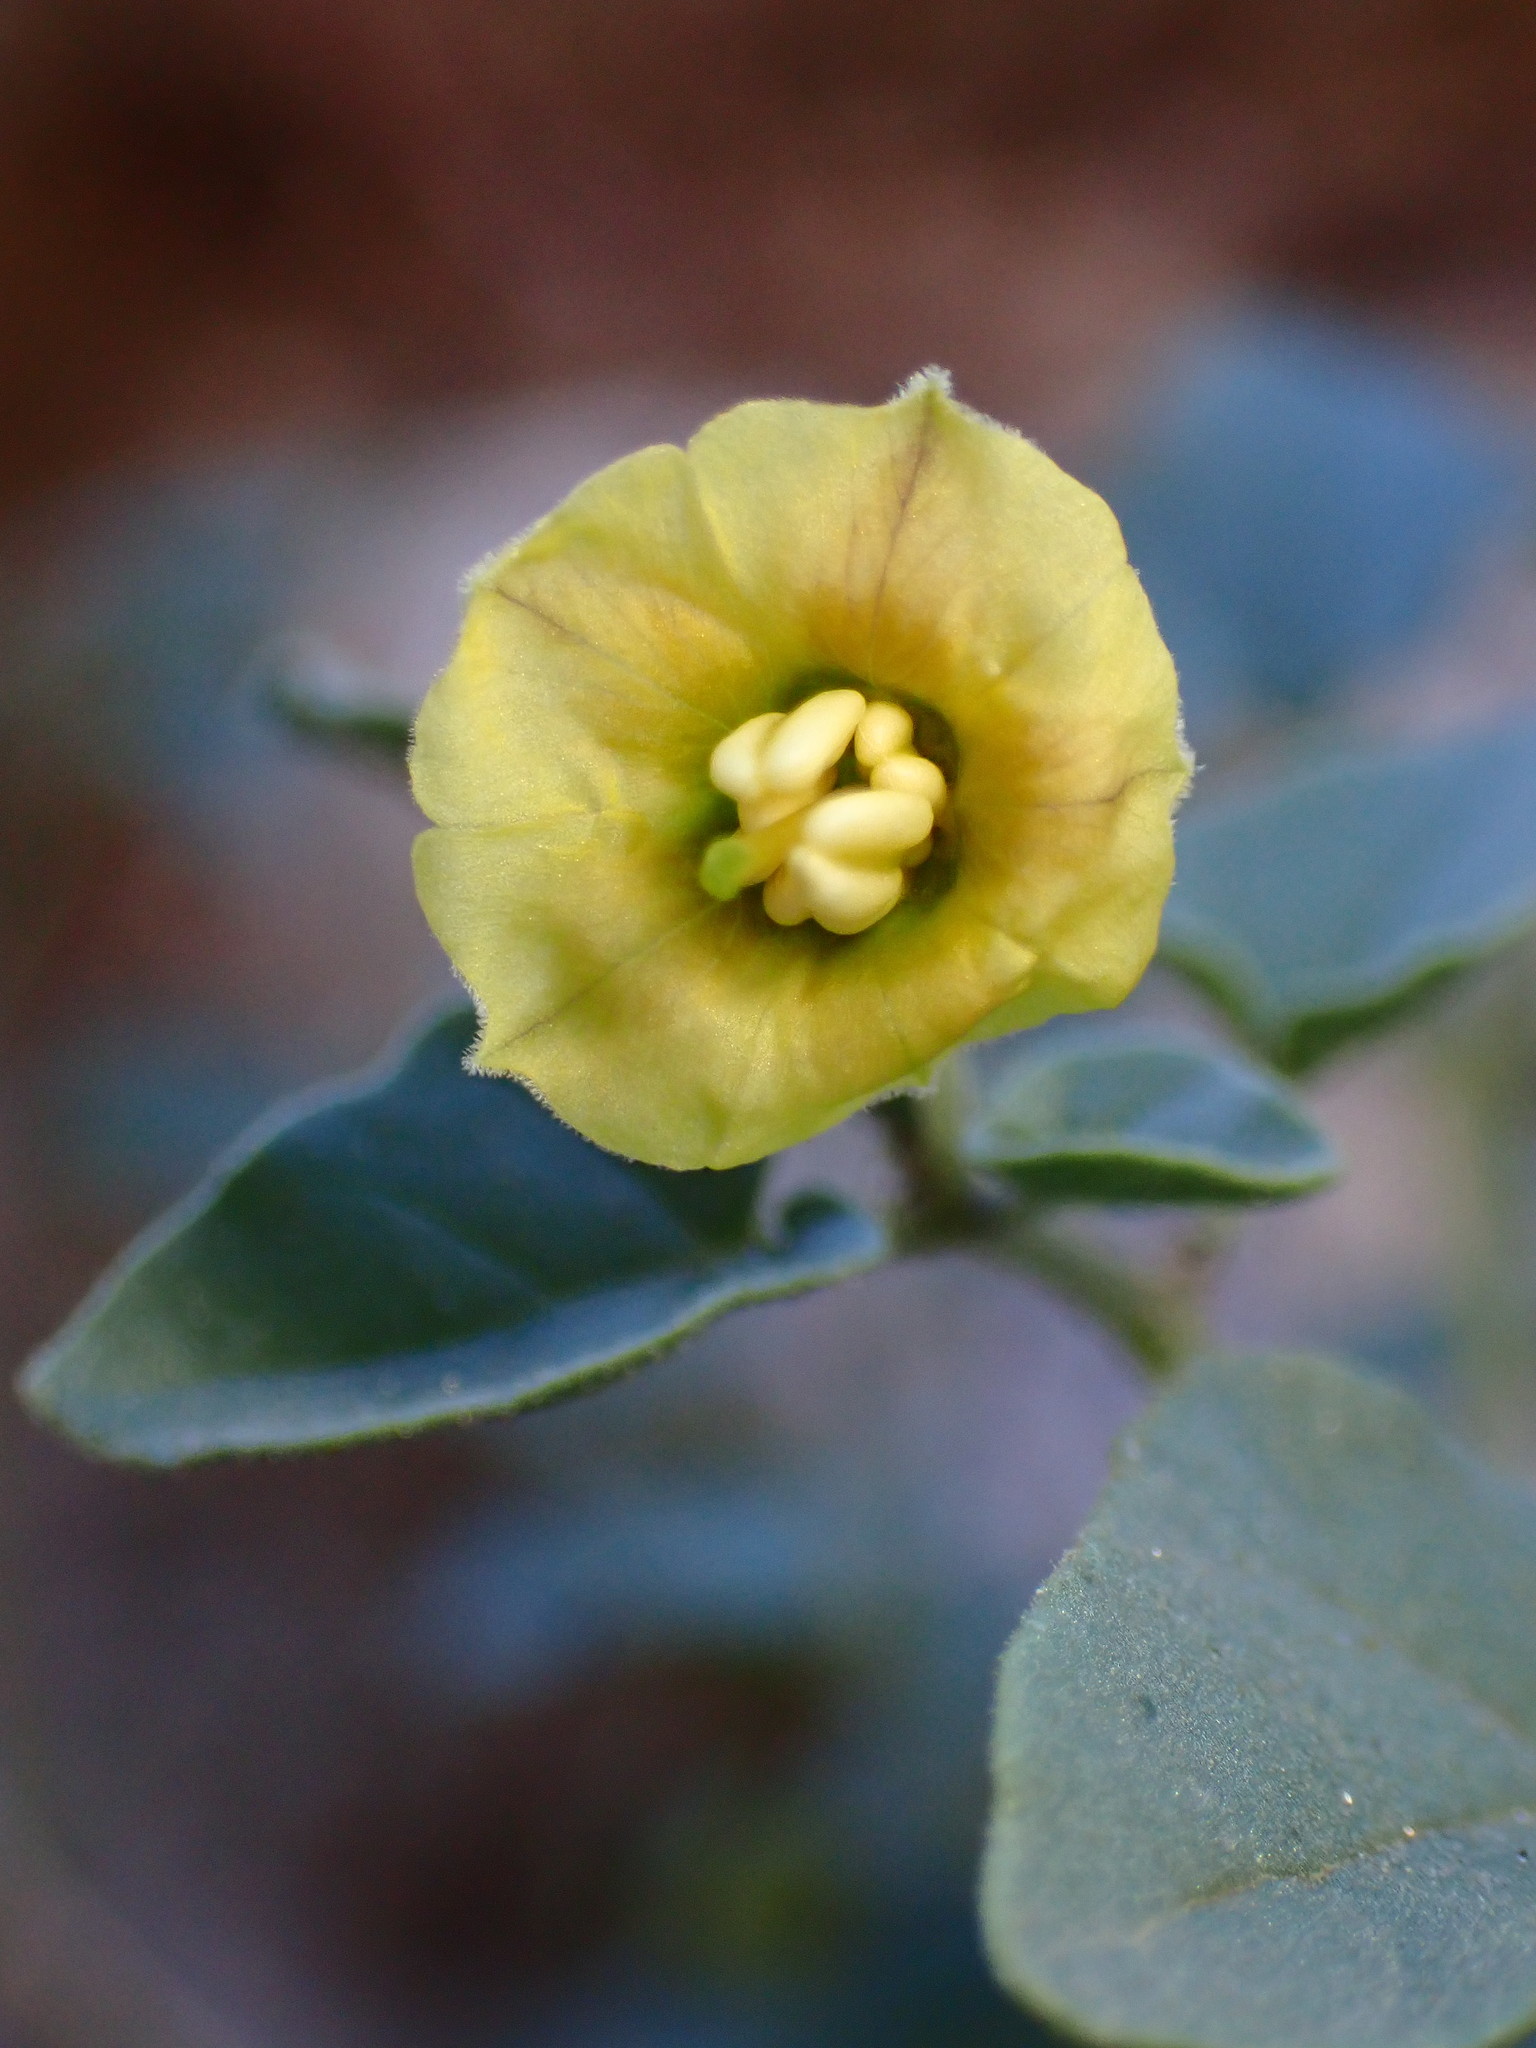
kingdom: Plantae
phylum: Tracheophyta
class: Magnoliopsida
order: Solanales
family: Solanaceae
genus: Physalis
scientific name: Physalis crassifolia
